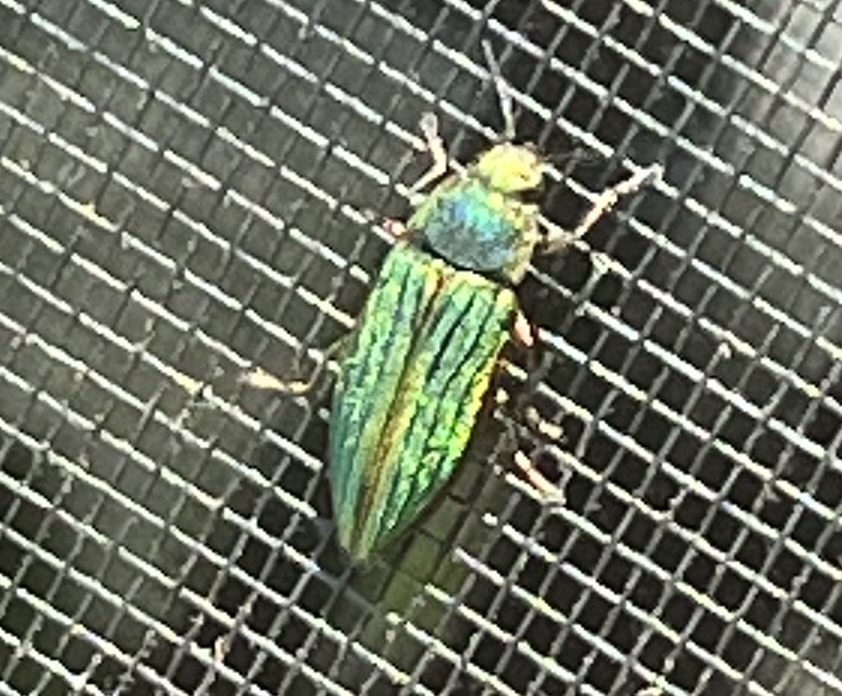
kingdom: Animalia
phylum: Arthropoda
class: Insecta
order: Coleoptera
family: Buprestidae
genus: Buprestis
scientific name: Buprestis aurulenta
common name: Golden buprestid
